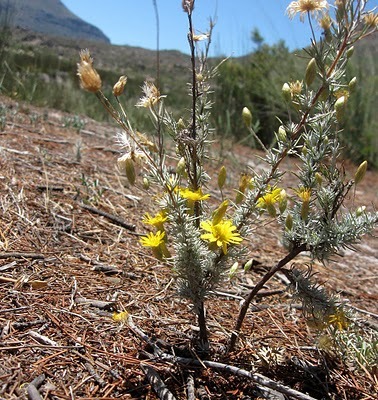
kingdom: Plantae
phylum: Tracheophyta
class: Magnoliopsida
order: Asterales
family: Asteraceae
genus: Leysera
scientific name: Leysera gnaphalodes
